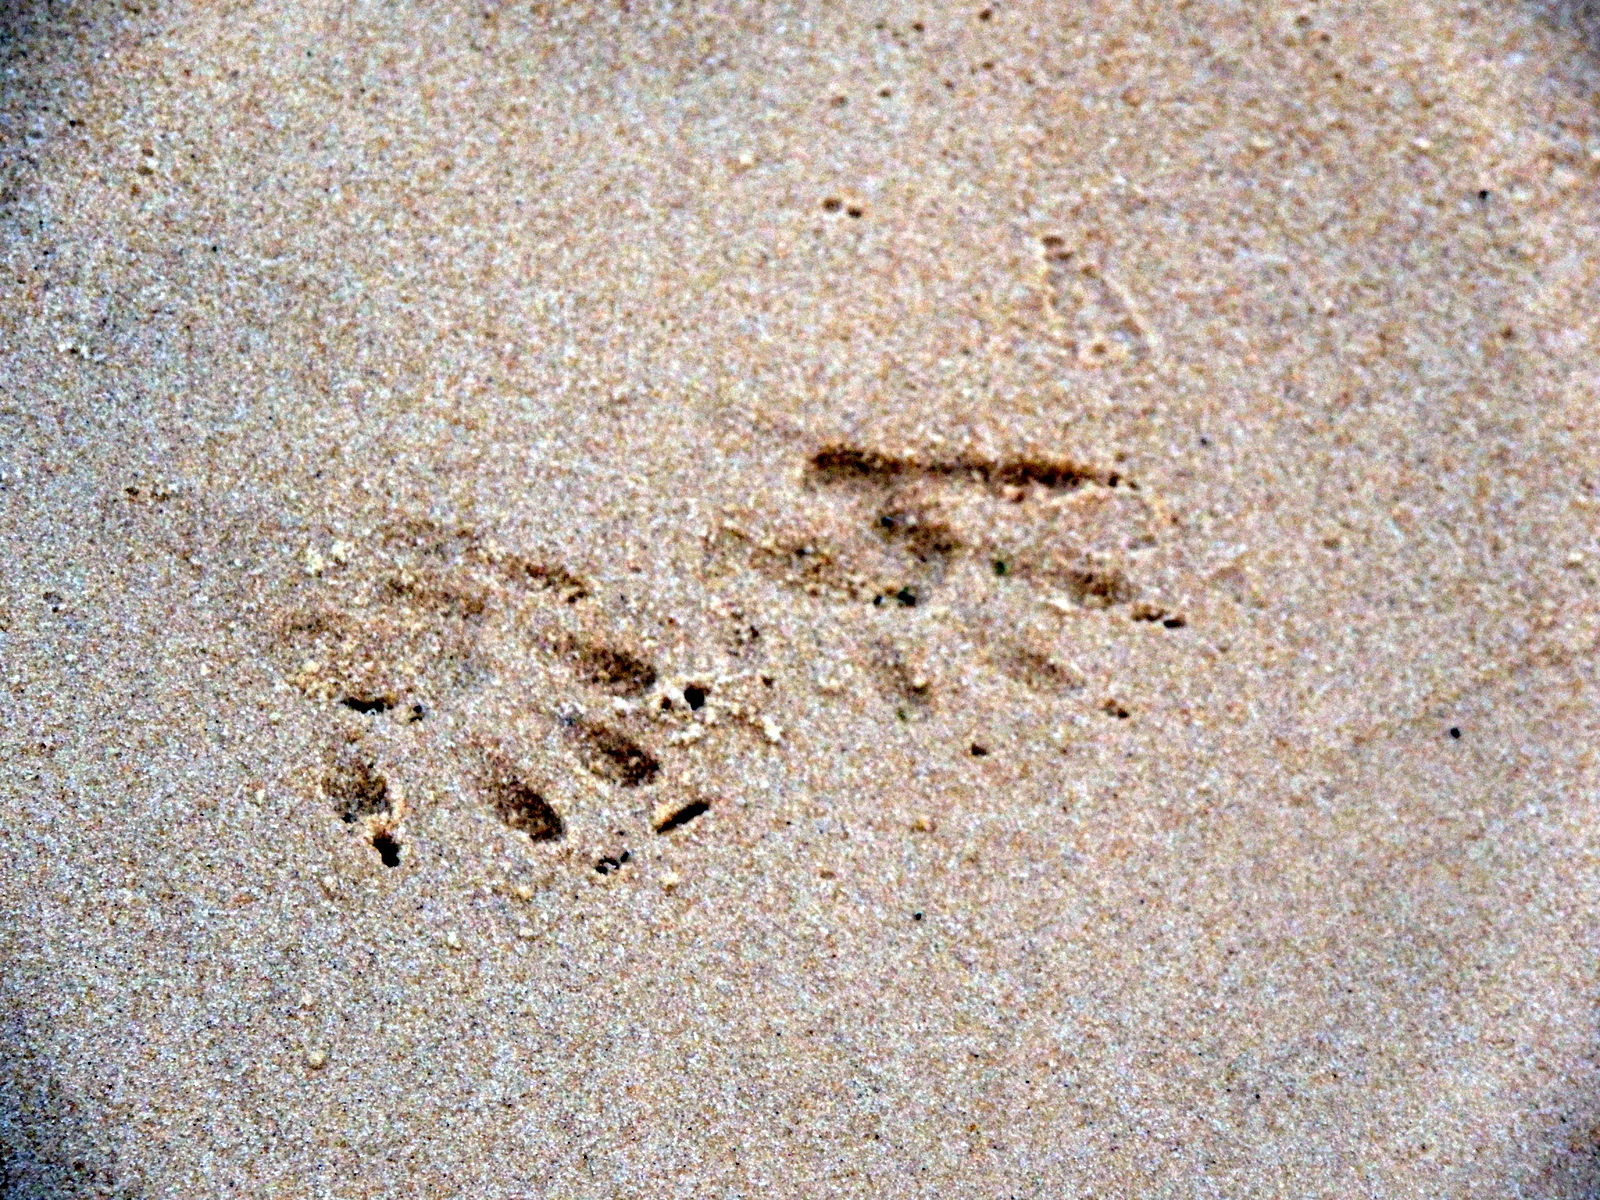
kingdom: Animalia
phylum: Chordata
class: Mammalia
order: Carnivora
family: Procyonidae
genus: Procyon
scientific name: Procyon lotor
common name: Raccoon
